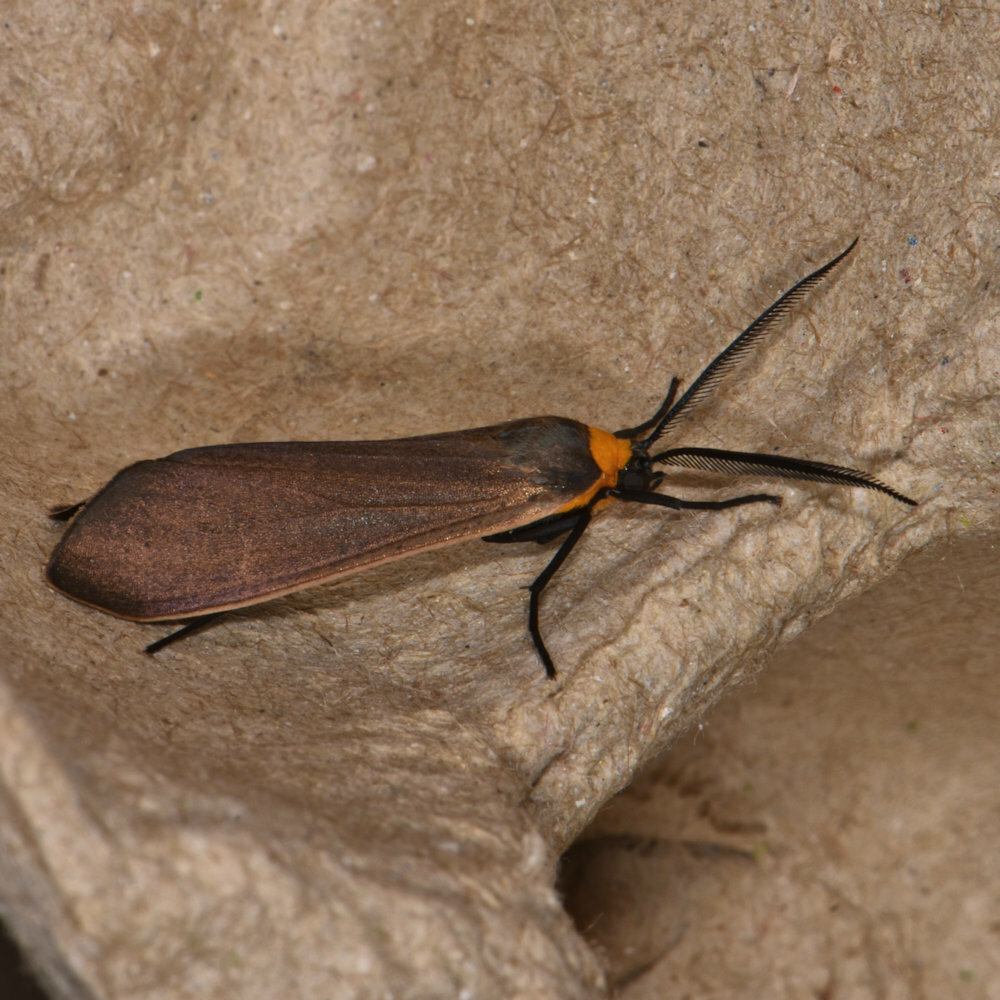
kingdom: Animalia
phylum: Arthropoda
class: Insecta
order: Lepidoptera
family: Erebidae
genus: Cisseps
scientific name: Cisseps fulvicollis
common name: Yellow-collared scape moth
